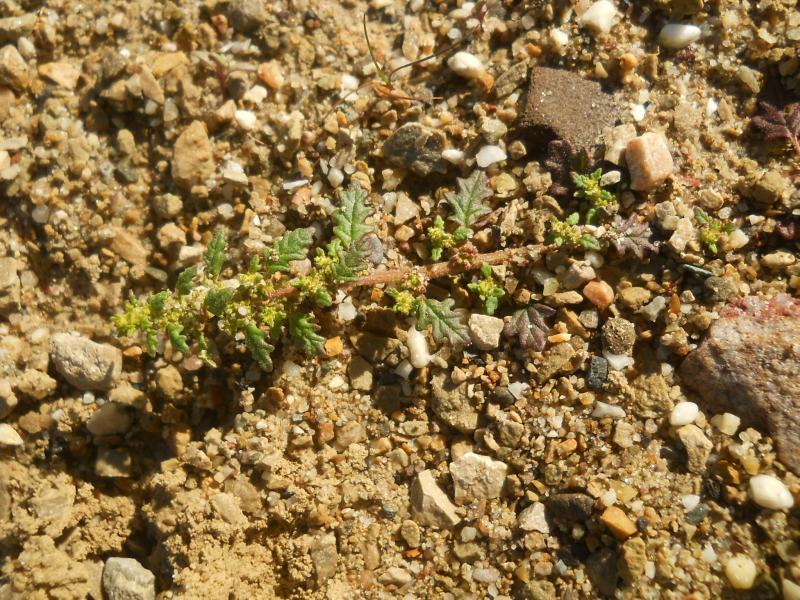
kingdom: Plantae
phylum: Tracheophyta
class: Magnoliopsida
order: Caryophyllales
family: Amaranthaceae
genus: Dysphania
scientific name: Dysphania pumilio
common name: Clammy goosefoot
